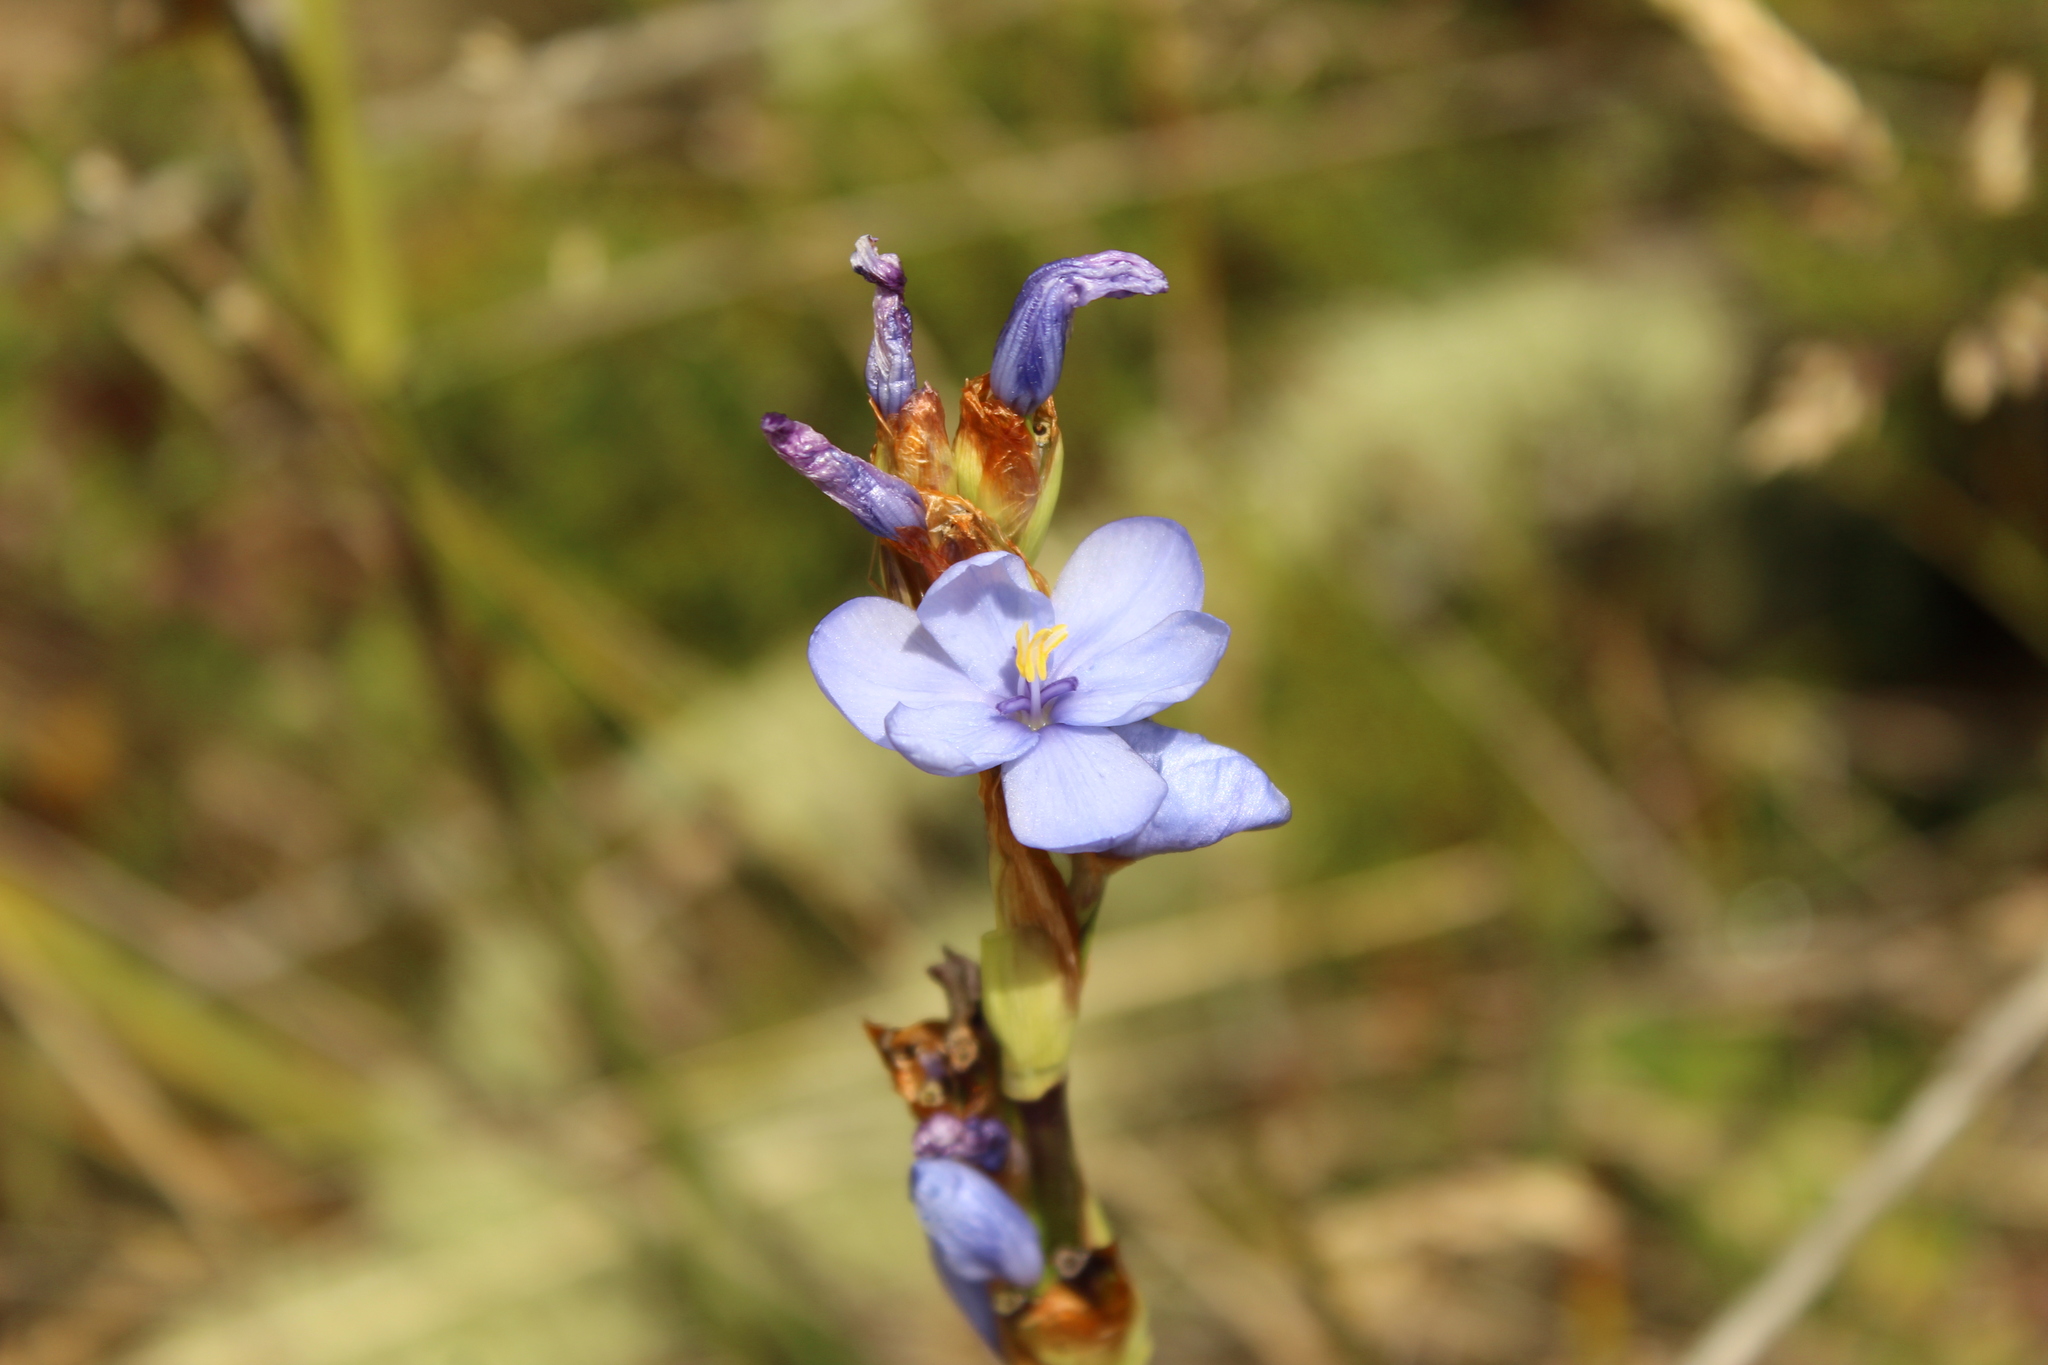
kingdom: Plantae
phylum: Tracheophyta
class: Liliopsida
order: Asparagales
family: Iridaceae
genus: Orthrosanthus
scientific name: Orthrosanthus chimboracensis
